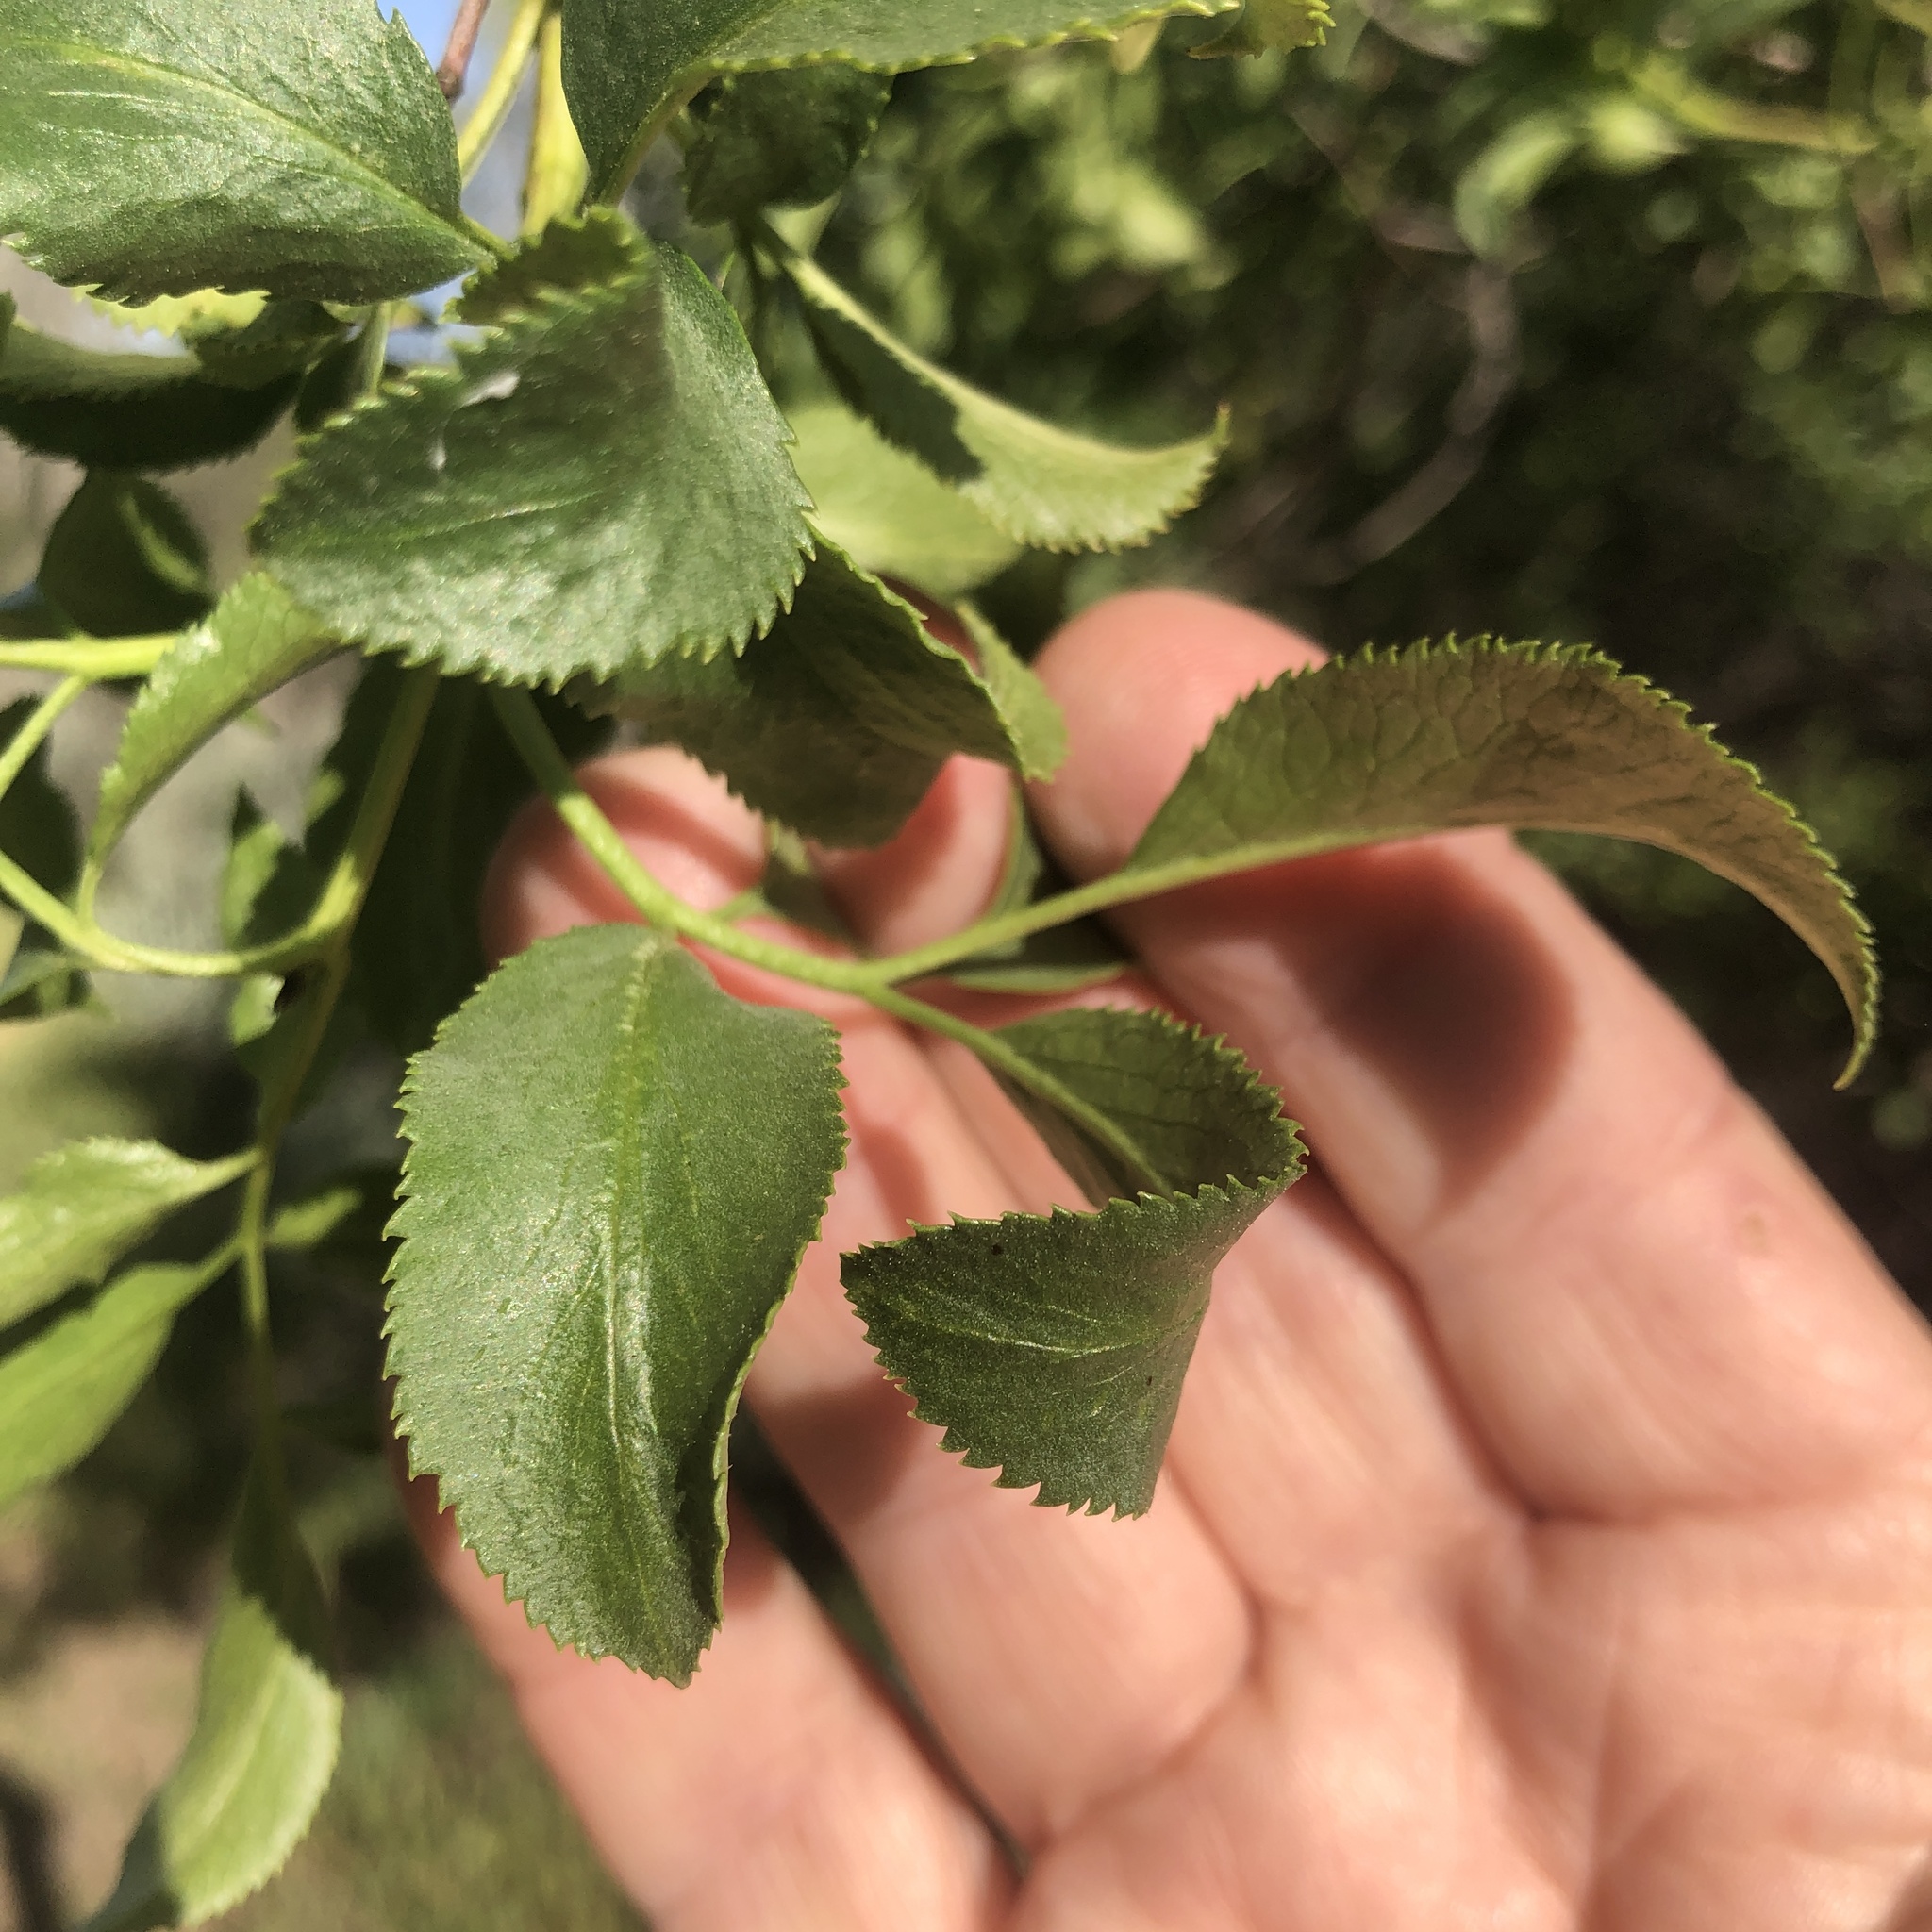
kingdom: Plantae
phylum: Tracheophyta
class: Magnoliopsida
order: Dipsacales
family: Viburnaceae
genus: Sambucus
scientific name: Sambucus cerulea
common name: Blue elder
